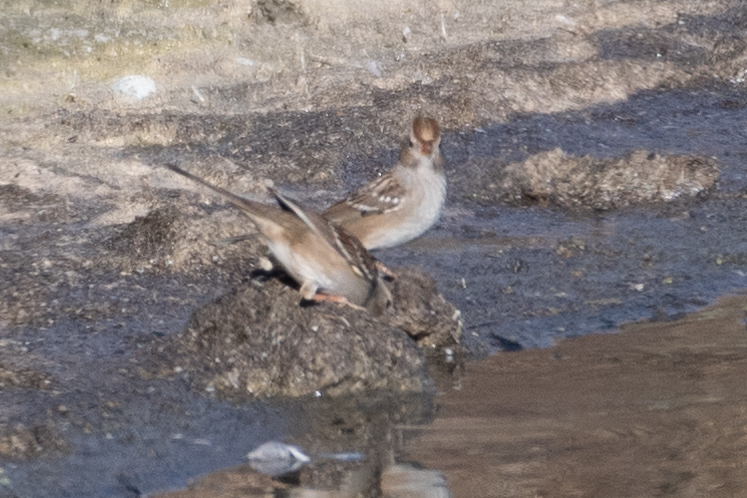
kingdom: Animalia
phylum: Chordata
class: Aves
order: Passeriformes
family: Passerellidae
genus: Zonotrichia
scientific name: Zonotrichia leucophrys
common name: White-crowned sparrow
